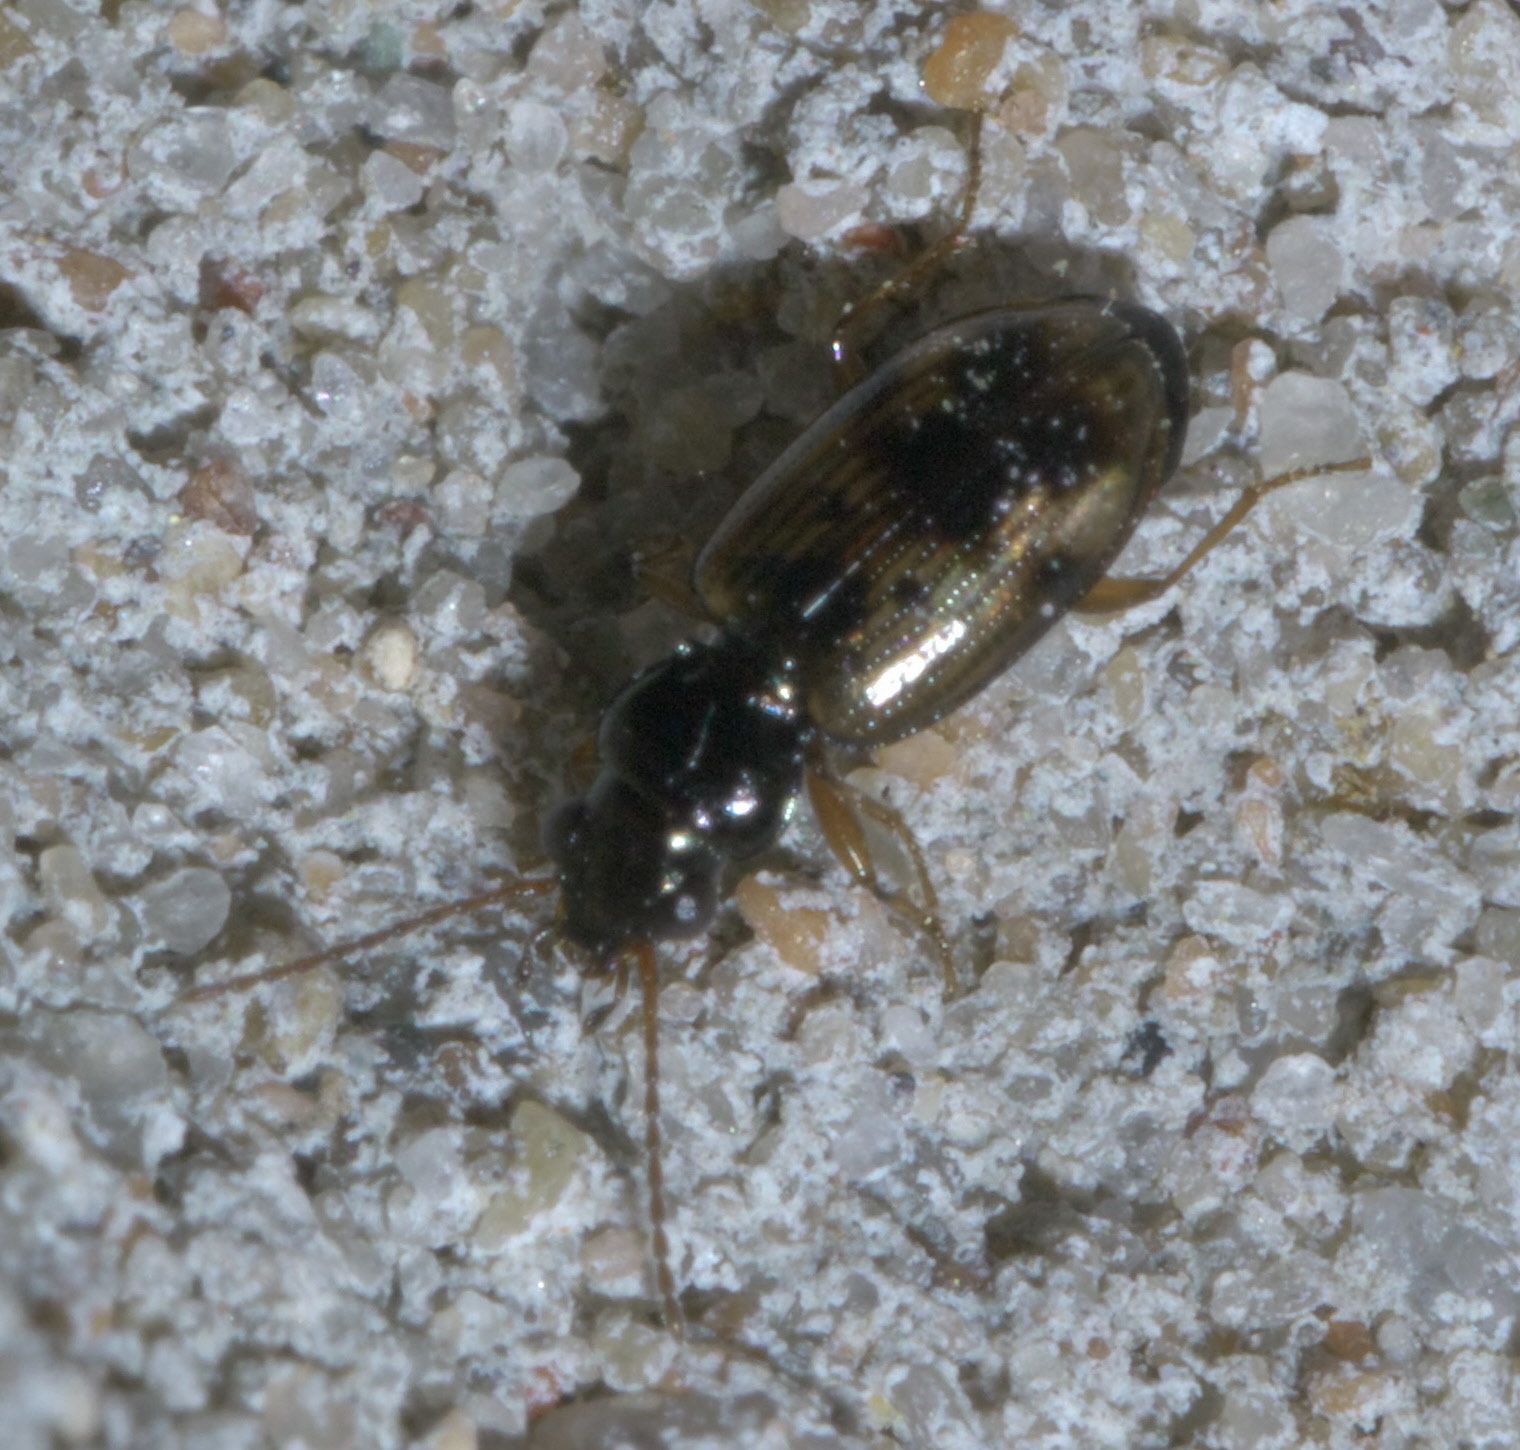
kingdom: Animalia
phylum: Arthropoda
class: Insecta
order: Coleoptera
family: Carabidae
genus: Bembidion
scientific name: Bembidion impotens
